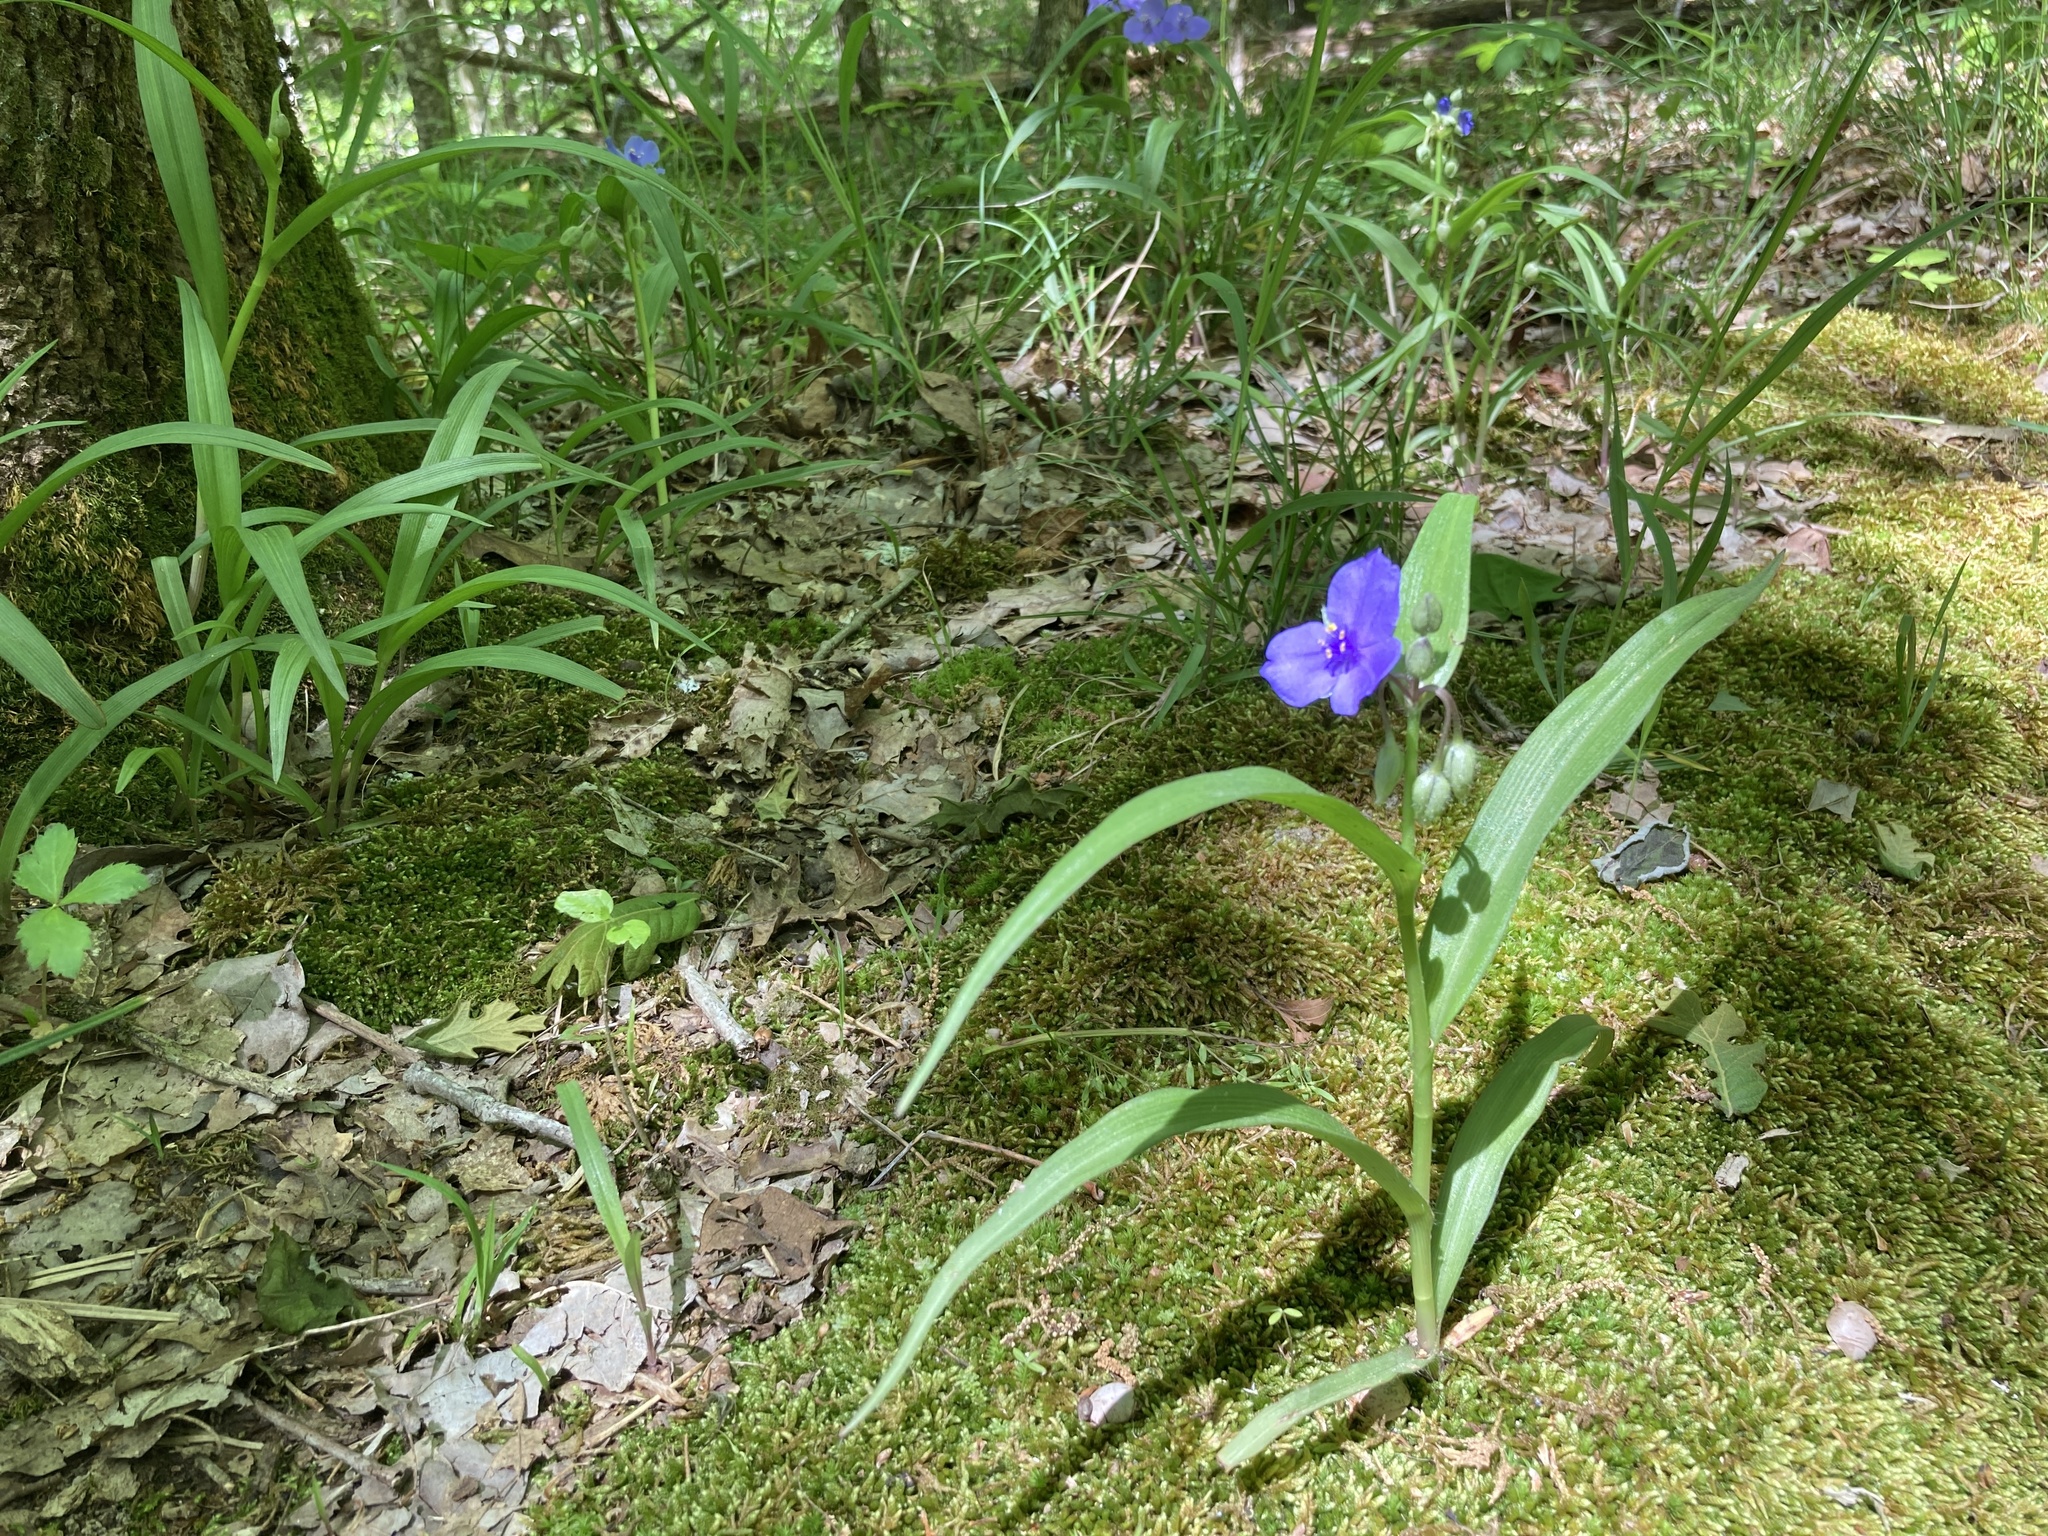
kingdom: Plantae
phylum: Tracheophyta
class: Liliopsida
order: Commelinales
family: Commelinaceae
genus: Tradescantia
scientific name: Tradescantia virginiana
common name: Spiderwort
